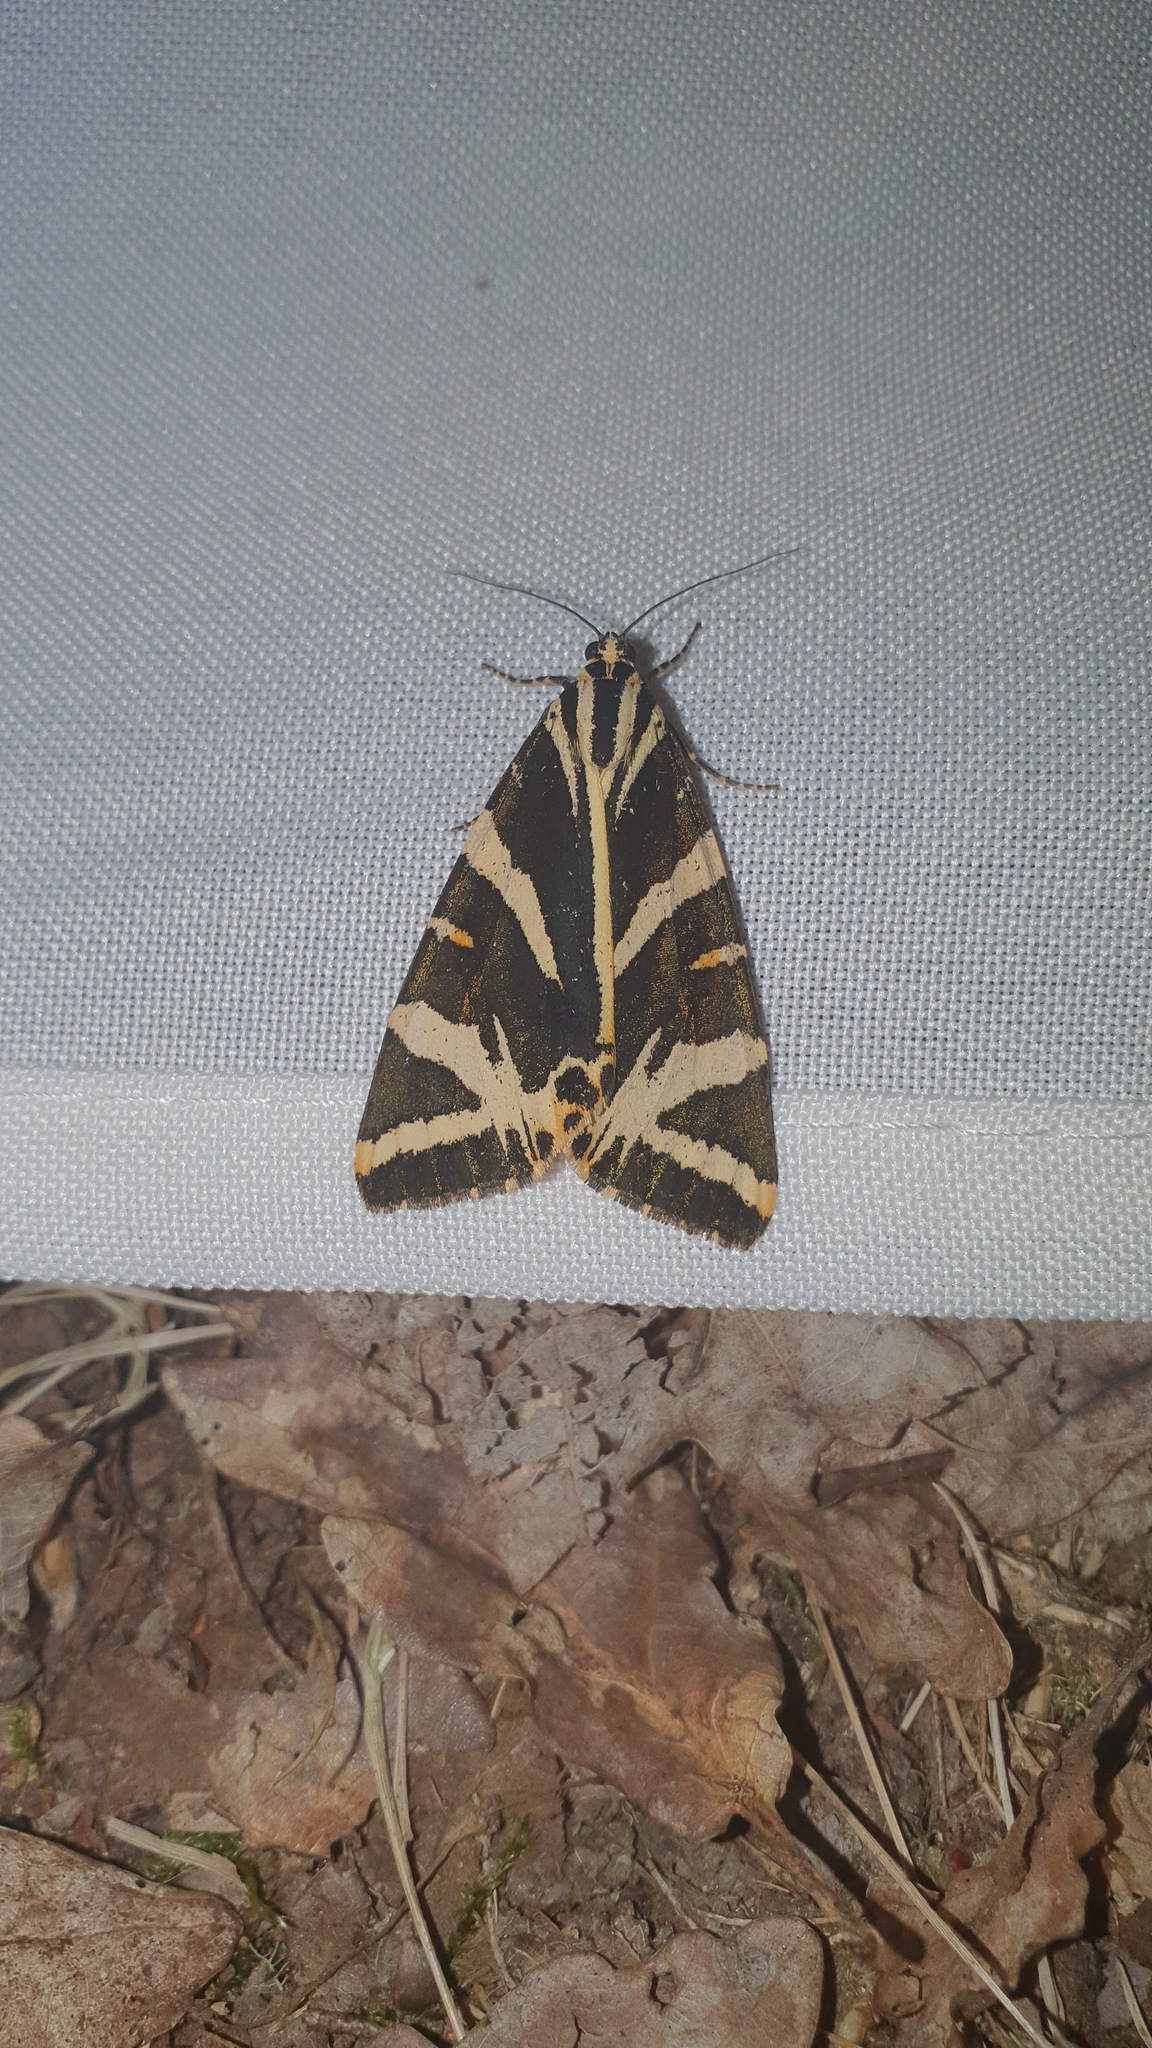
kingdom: Animalia
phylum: Arthropoda
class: Insecta
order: Lepidoptera
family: Erebidae
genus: Euplagia
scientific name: Euplagia quadripunctaria
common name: Jersey tiger
